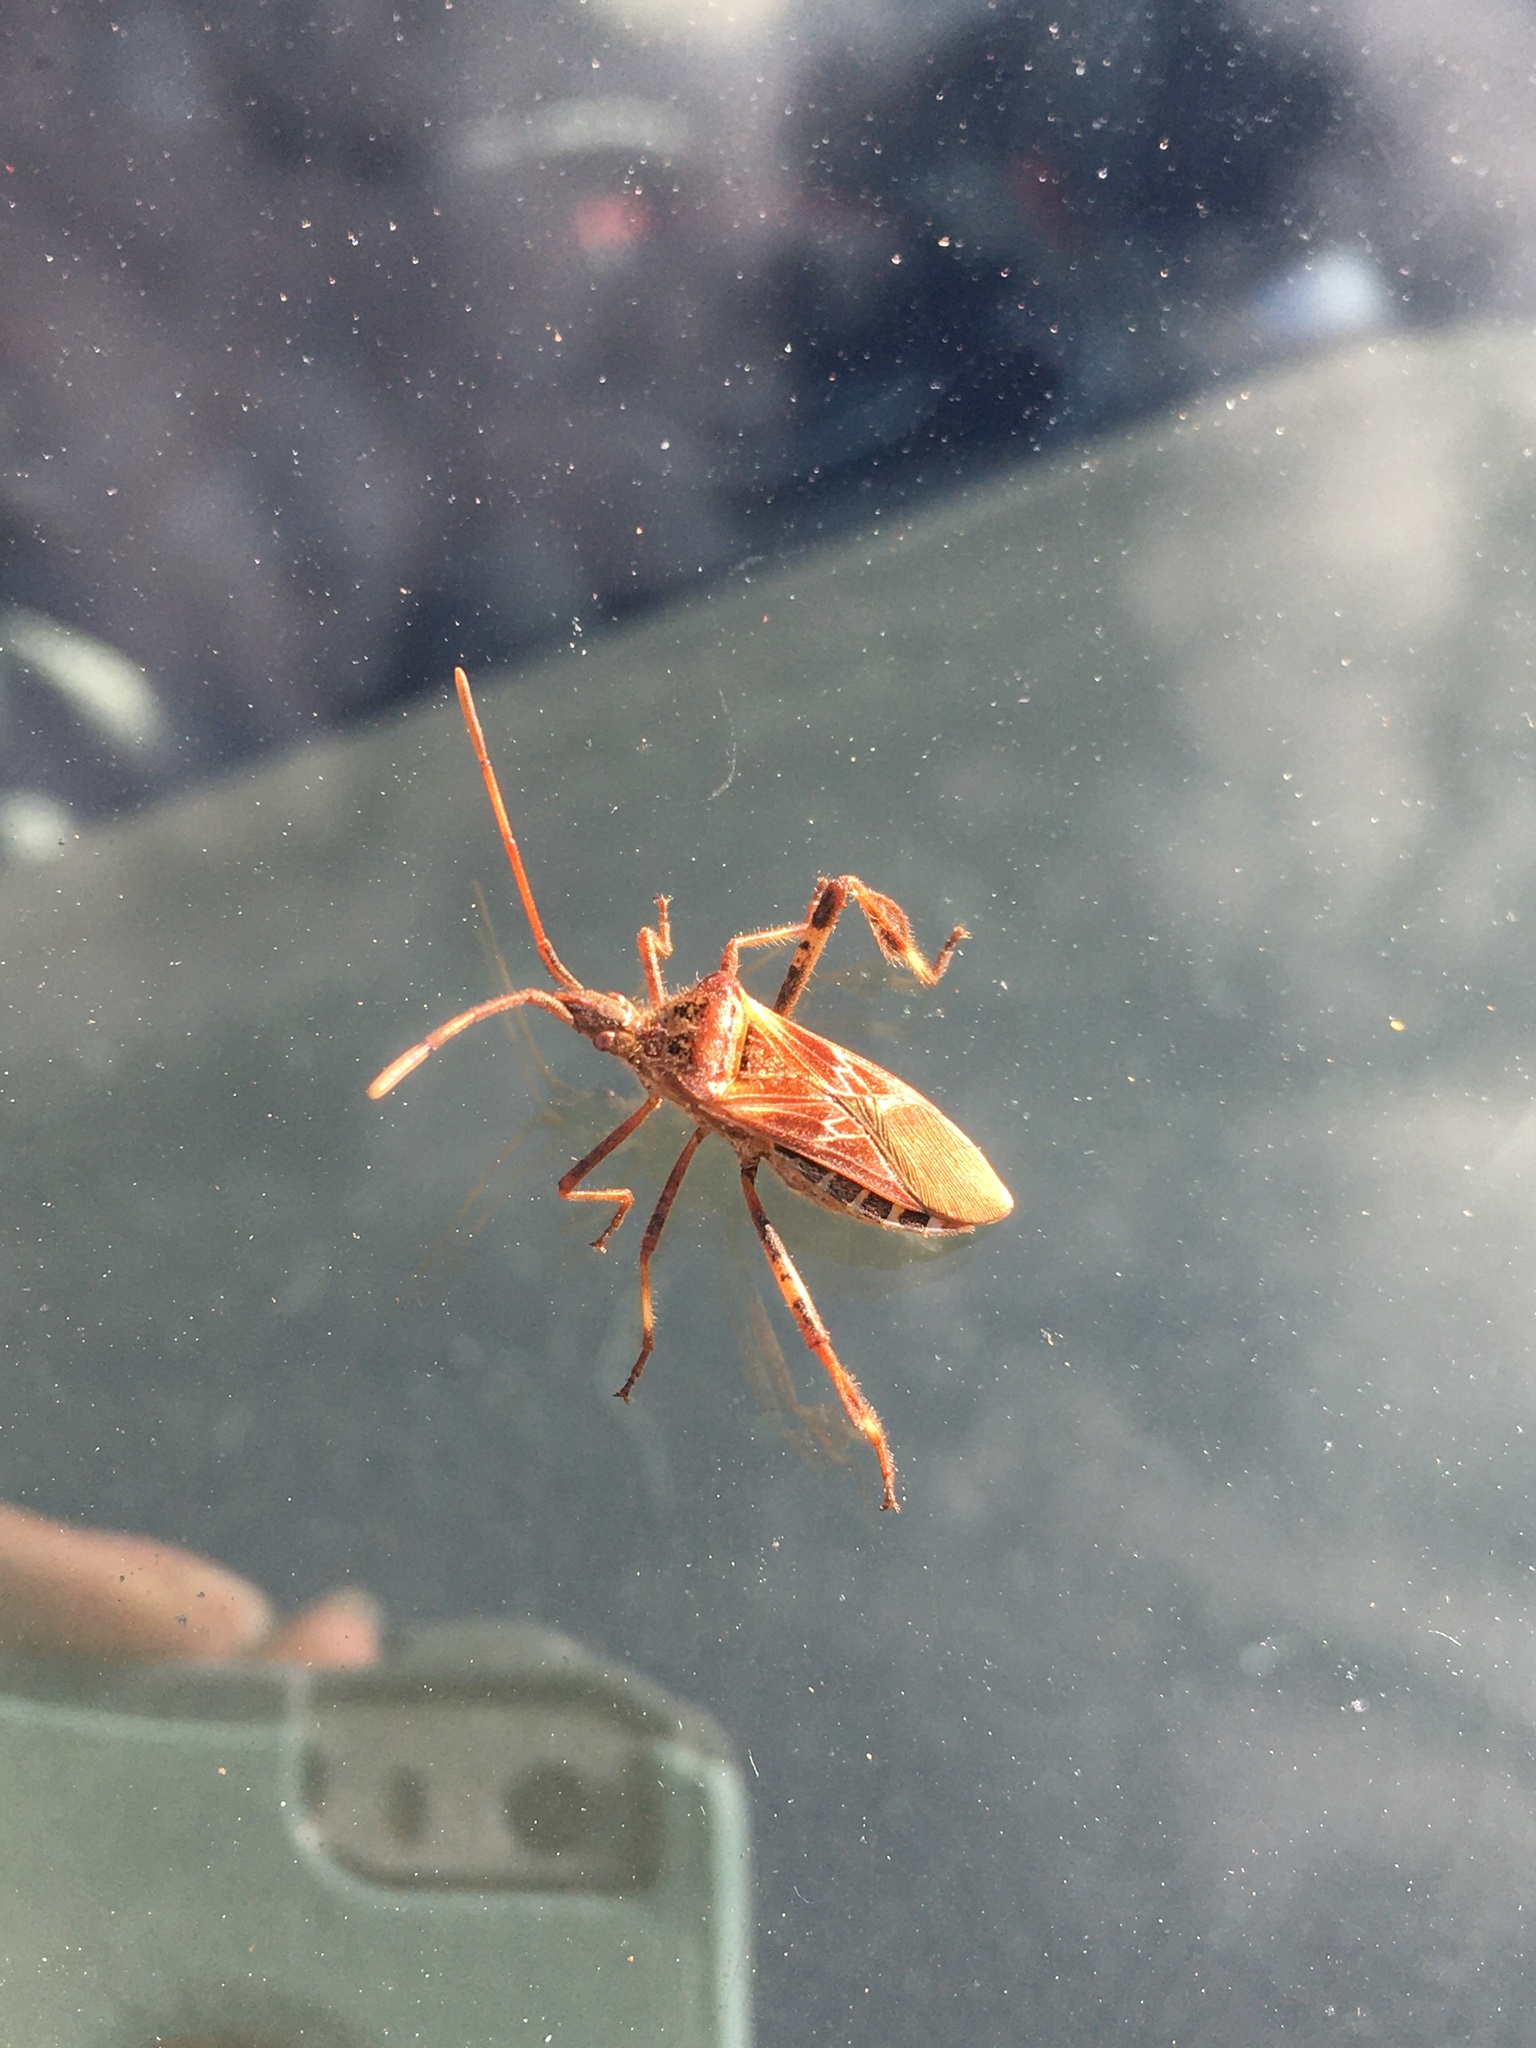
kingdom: Animalia
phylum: Arthropoda
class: Insecta
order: Hemiptera
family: Coreidae
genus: Leptoglossus
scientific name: Leptoglossus occidentalis
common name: Western conifer-seed bug
